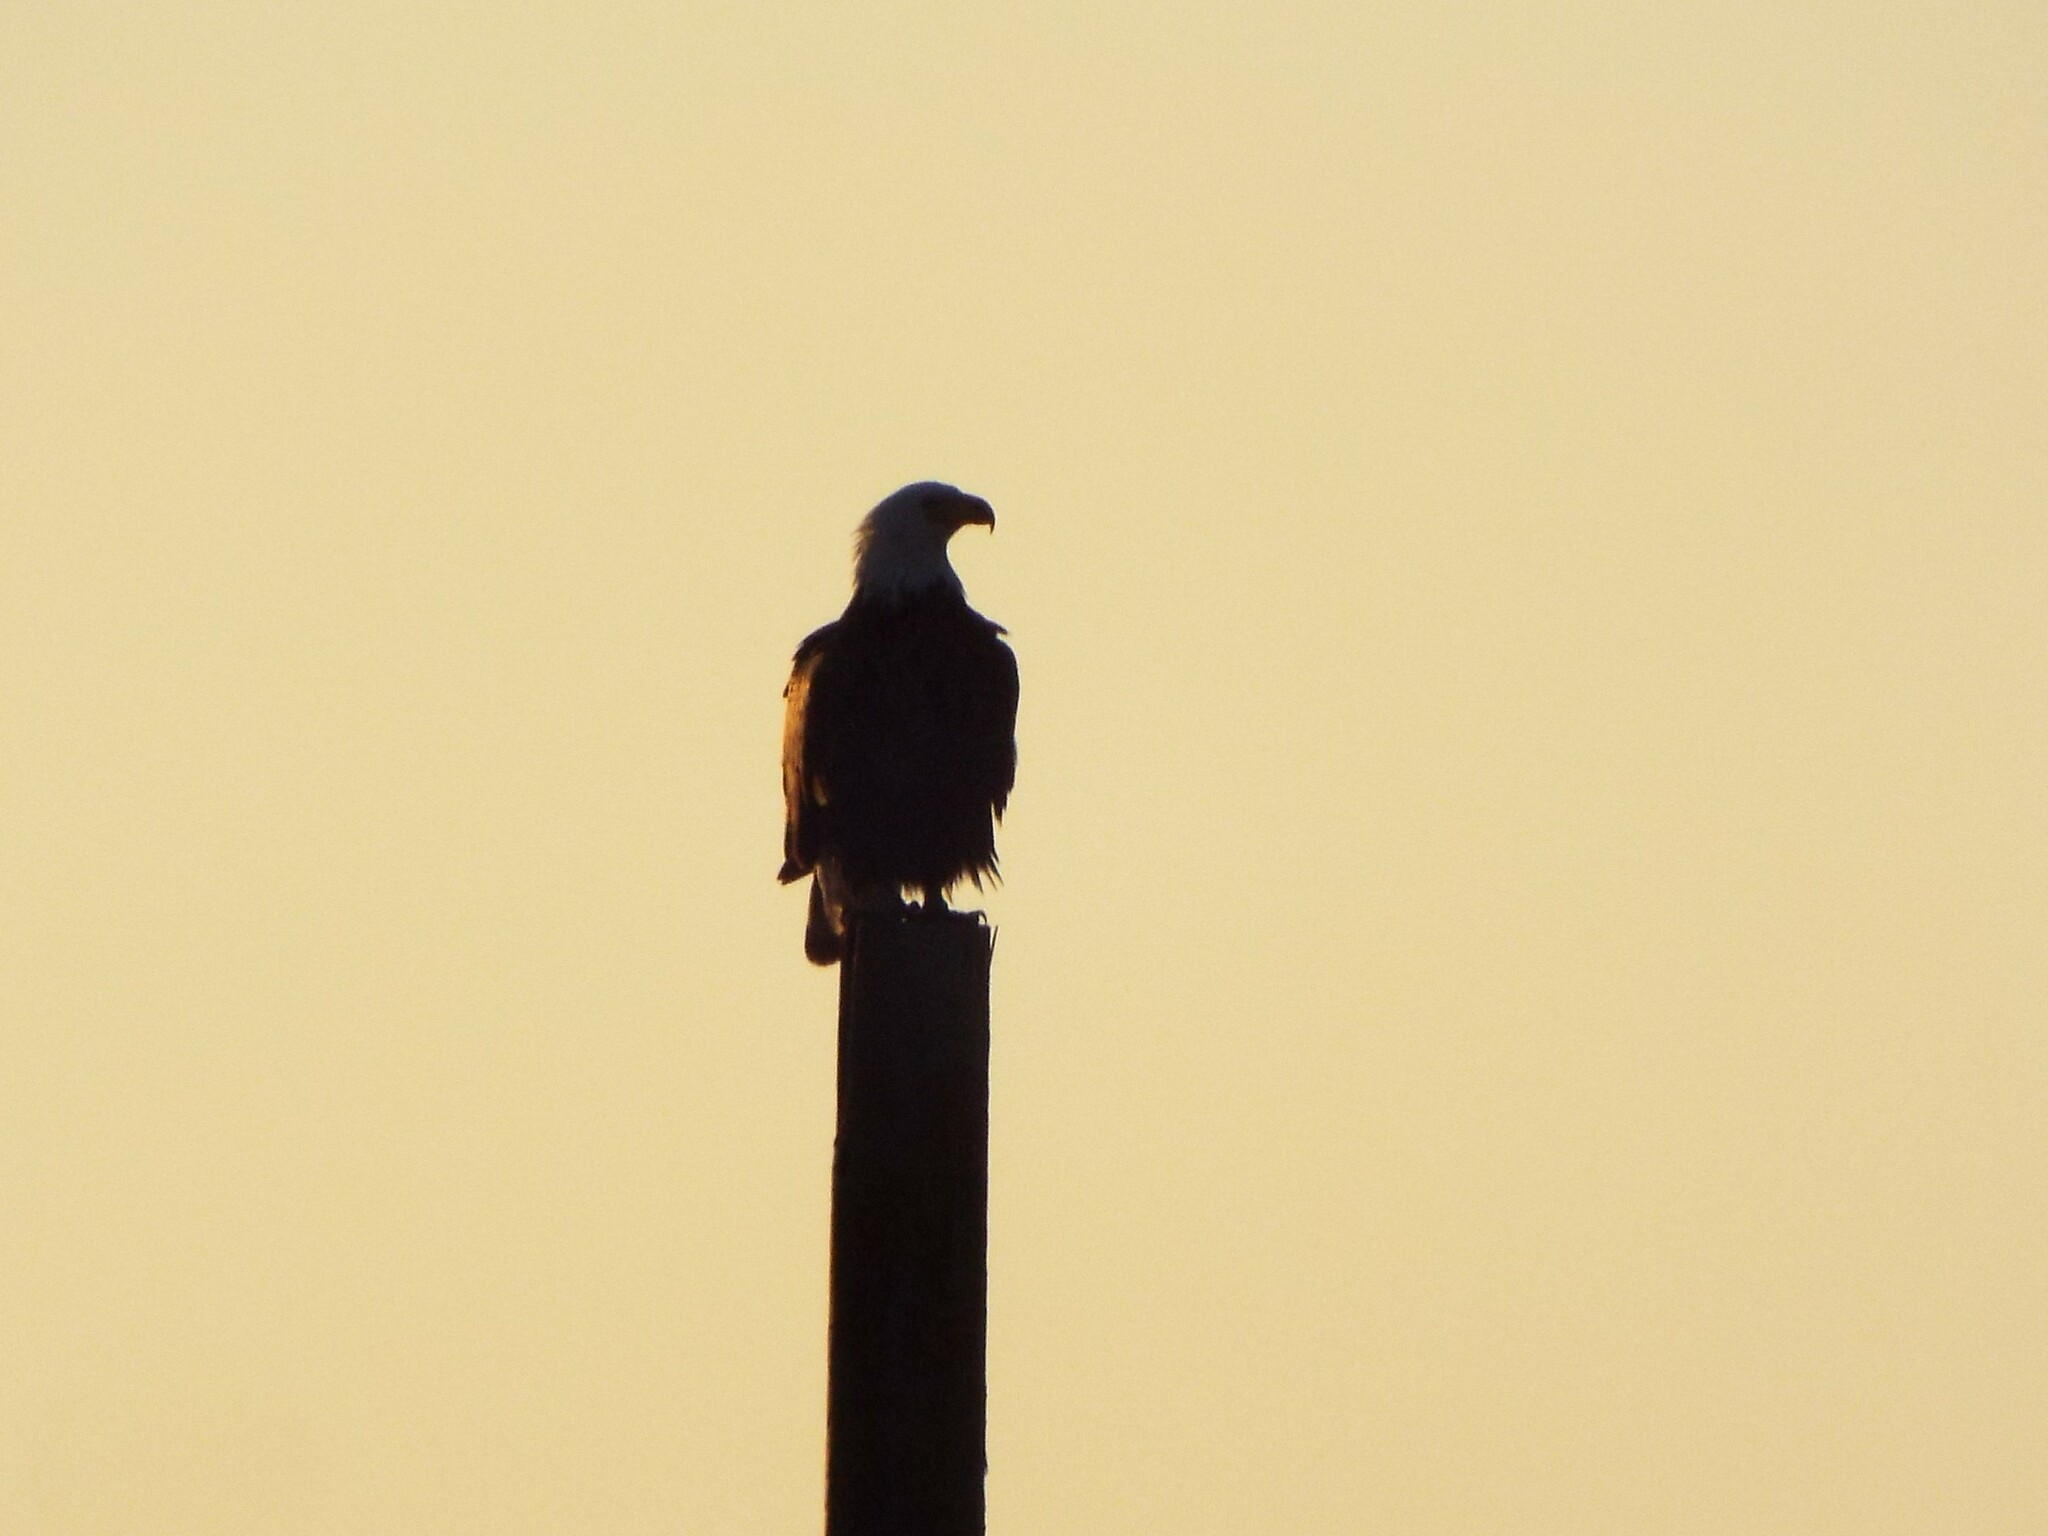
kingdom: Animalia
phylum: Chordata
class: Aves
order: Accipitriformes
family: Accipitridae
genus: Haliaeetus
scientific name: Haliaeetus leucocephalus
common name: Bald eagle
